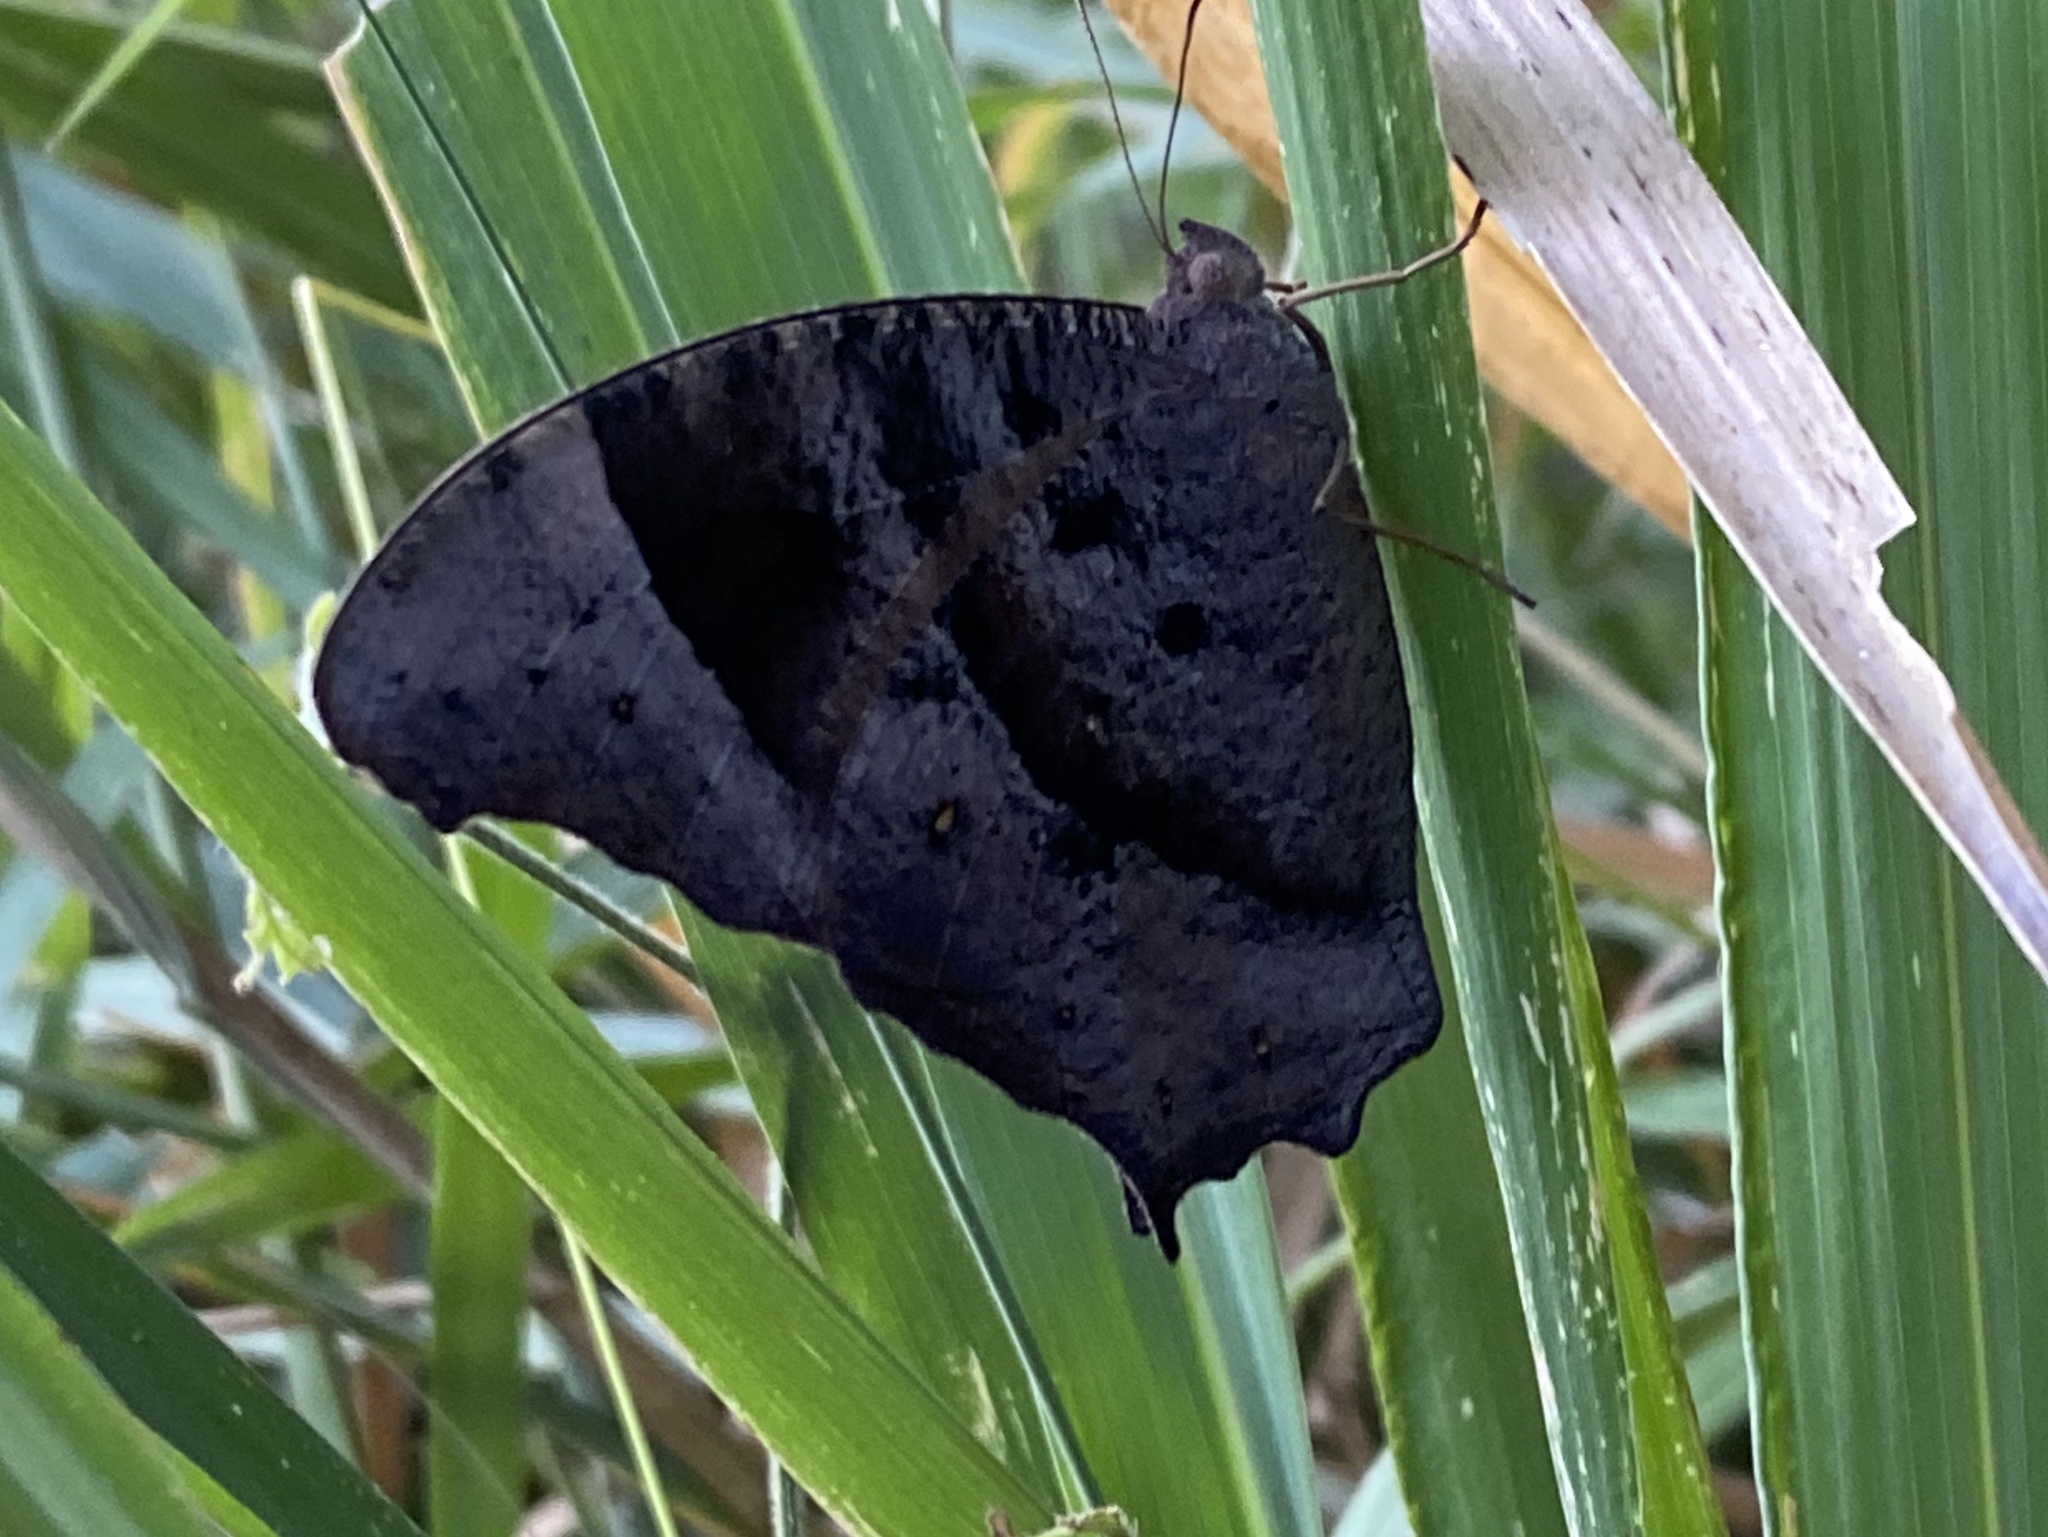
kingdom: Animalia
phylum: Arthropoda
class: Insecta
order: Lepidoptera
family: Nymphalidae
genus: Melanitis
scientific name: Melanitis leda
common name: Twilight brown
